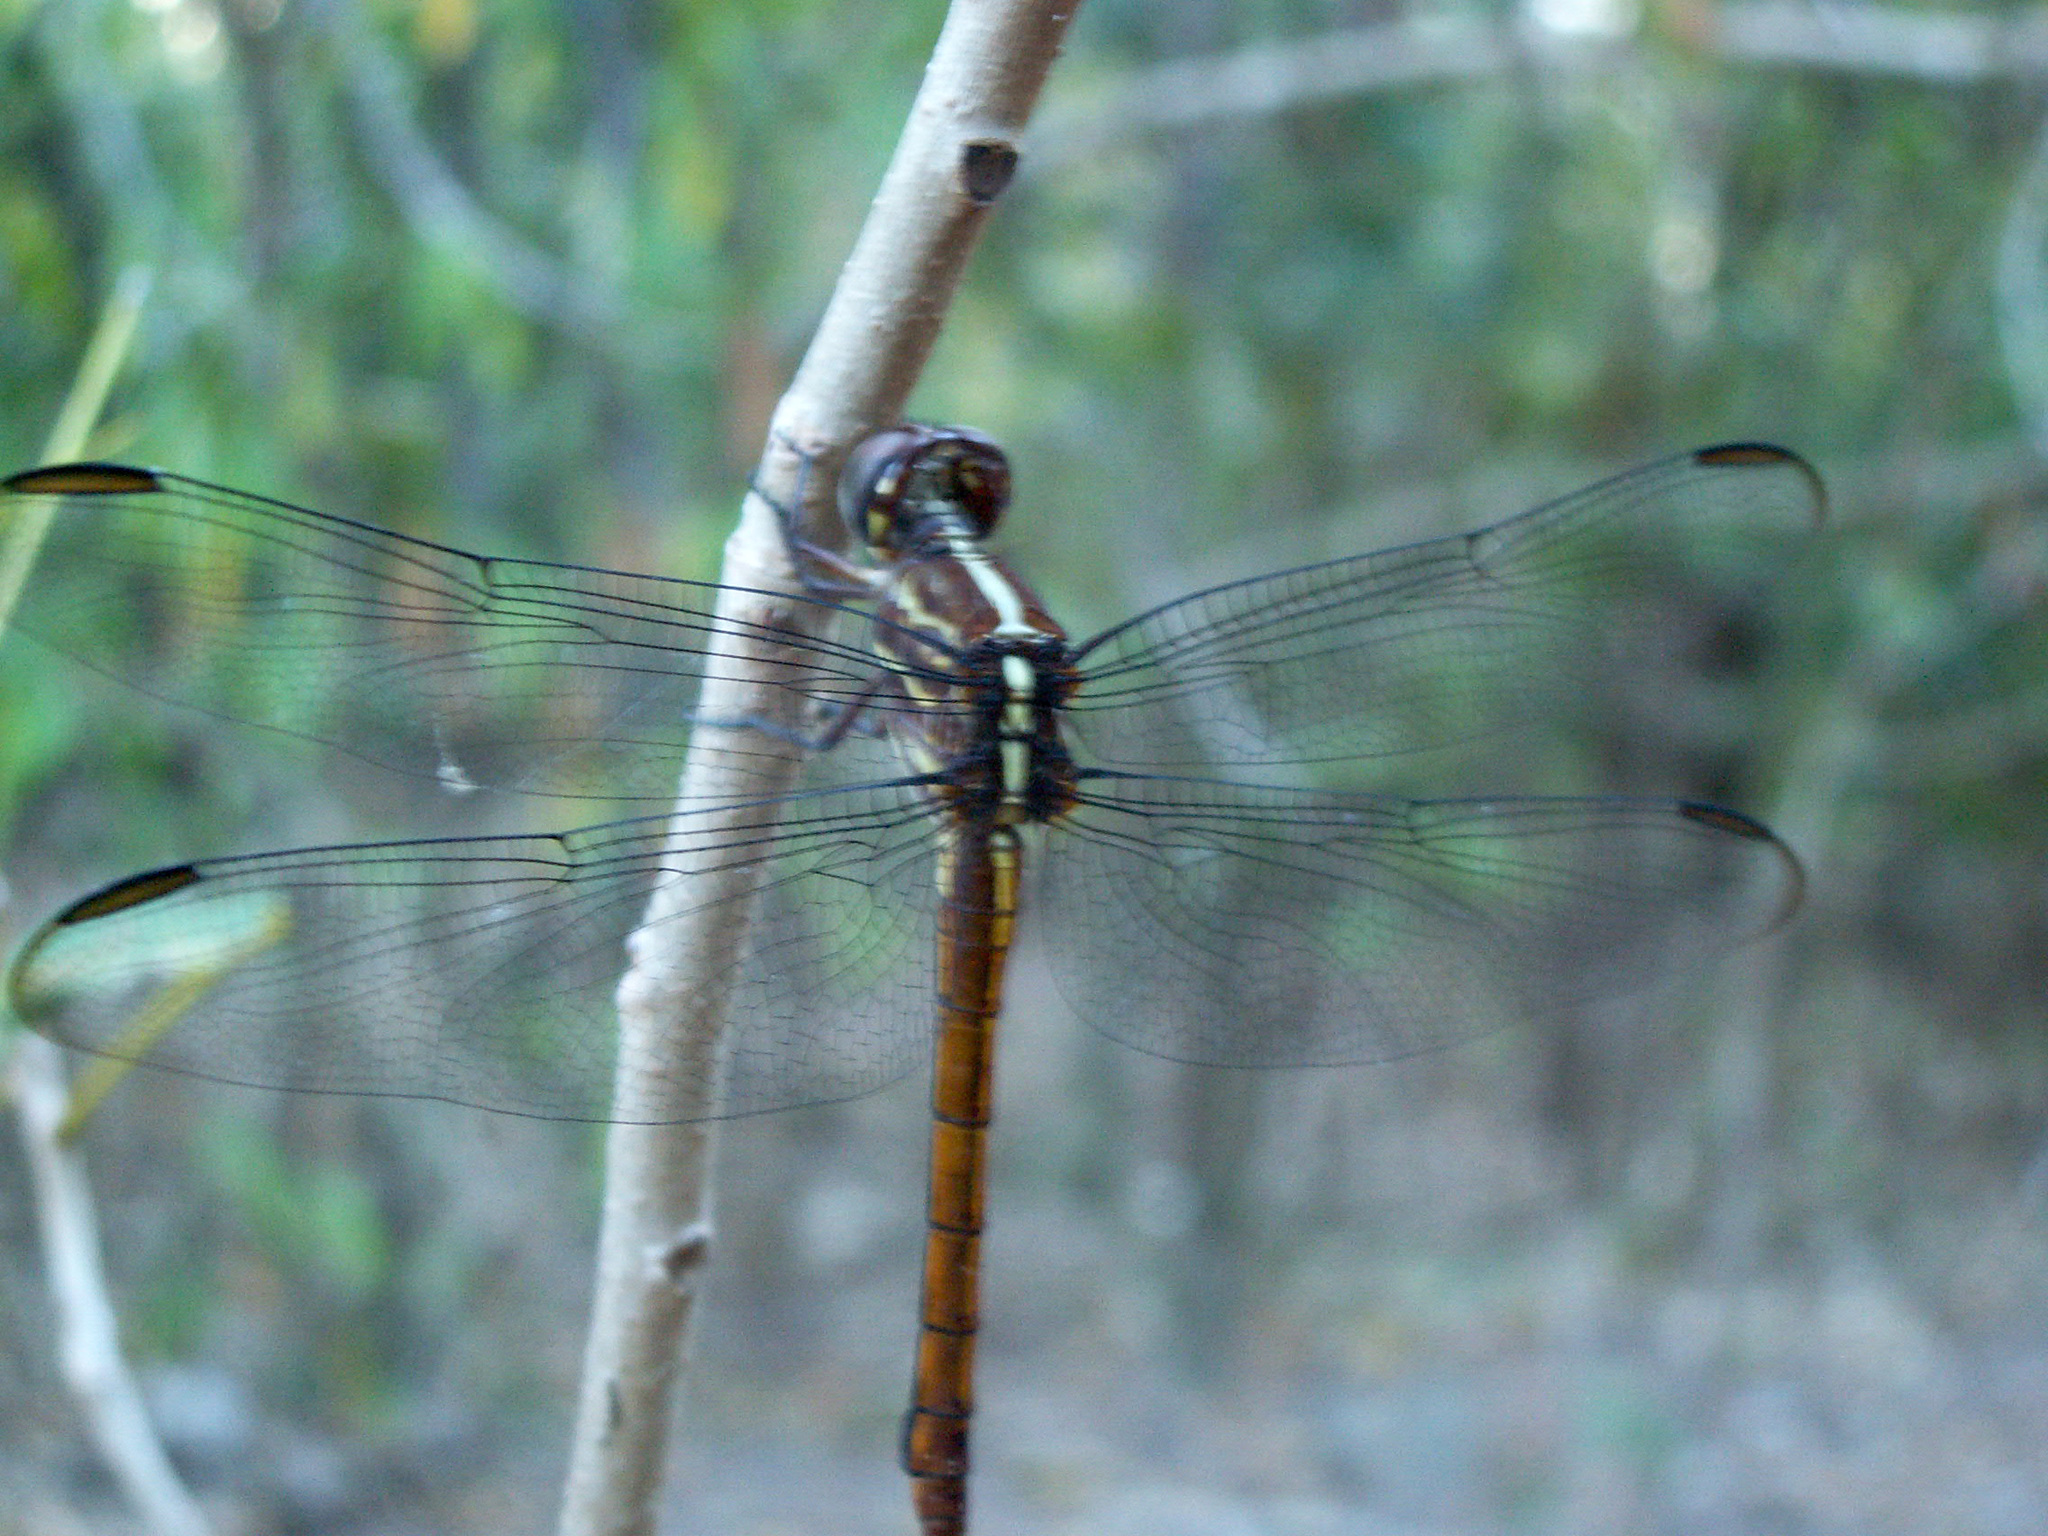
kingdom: Animalia
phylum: Arthropoda
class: Insecta
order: Odonata
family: Libellulidae
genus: Orthemis
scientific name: Orthemis macrostigma
